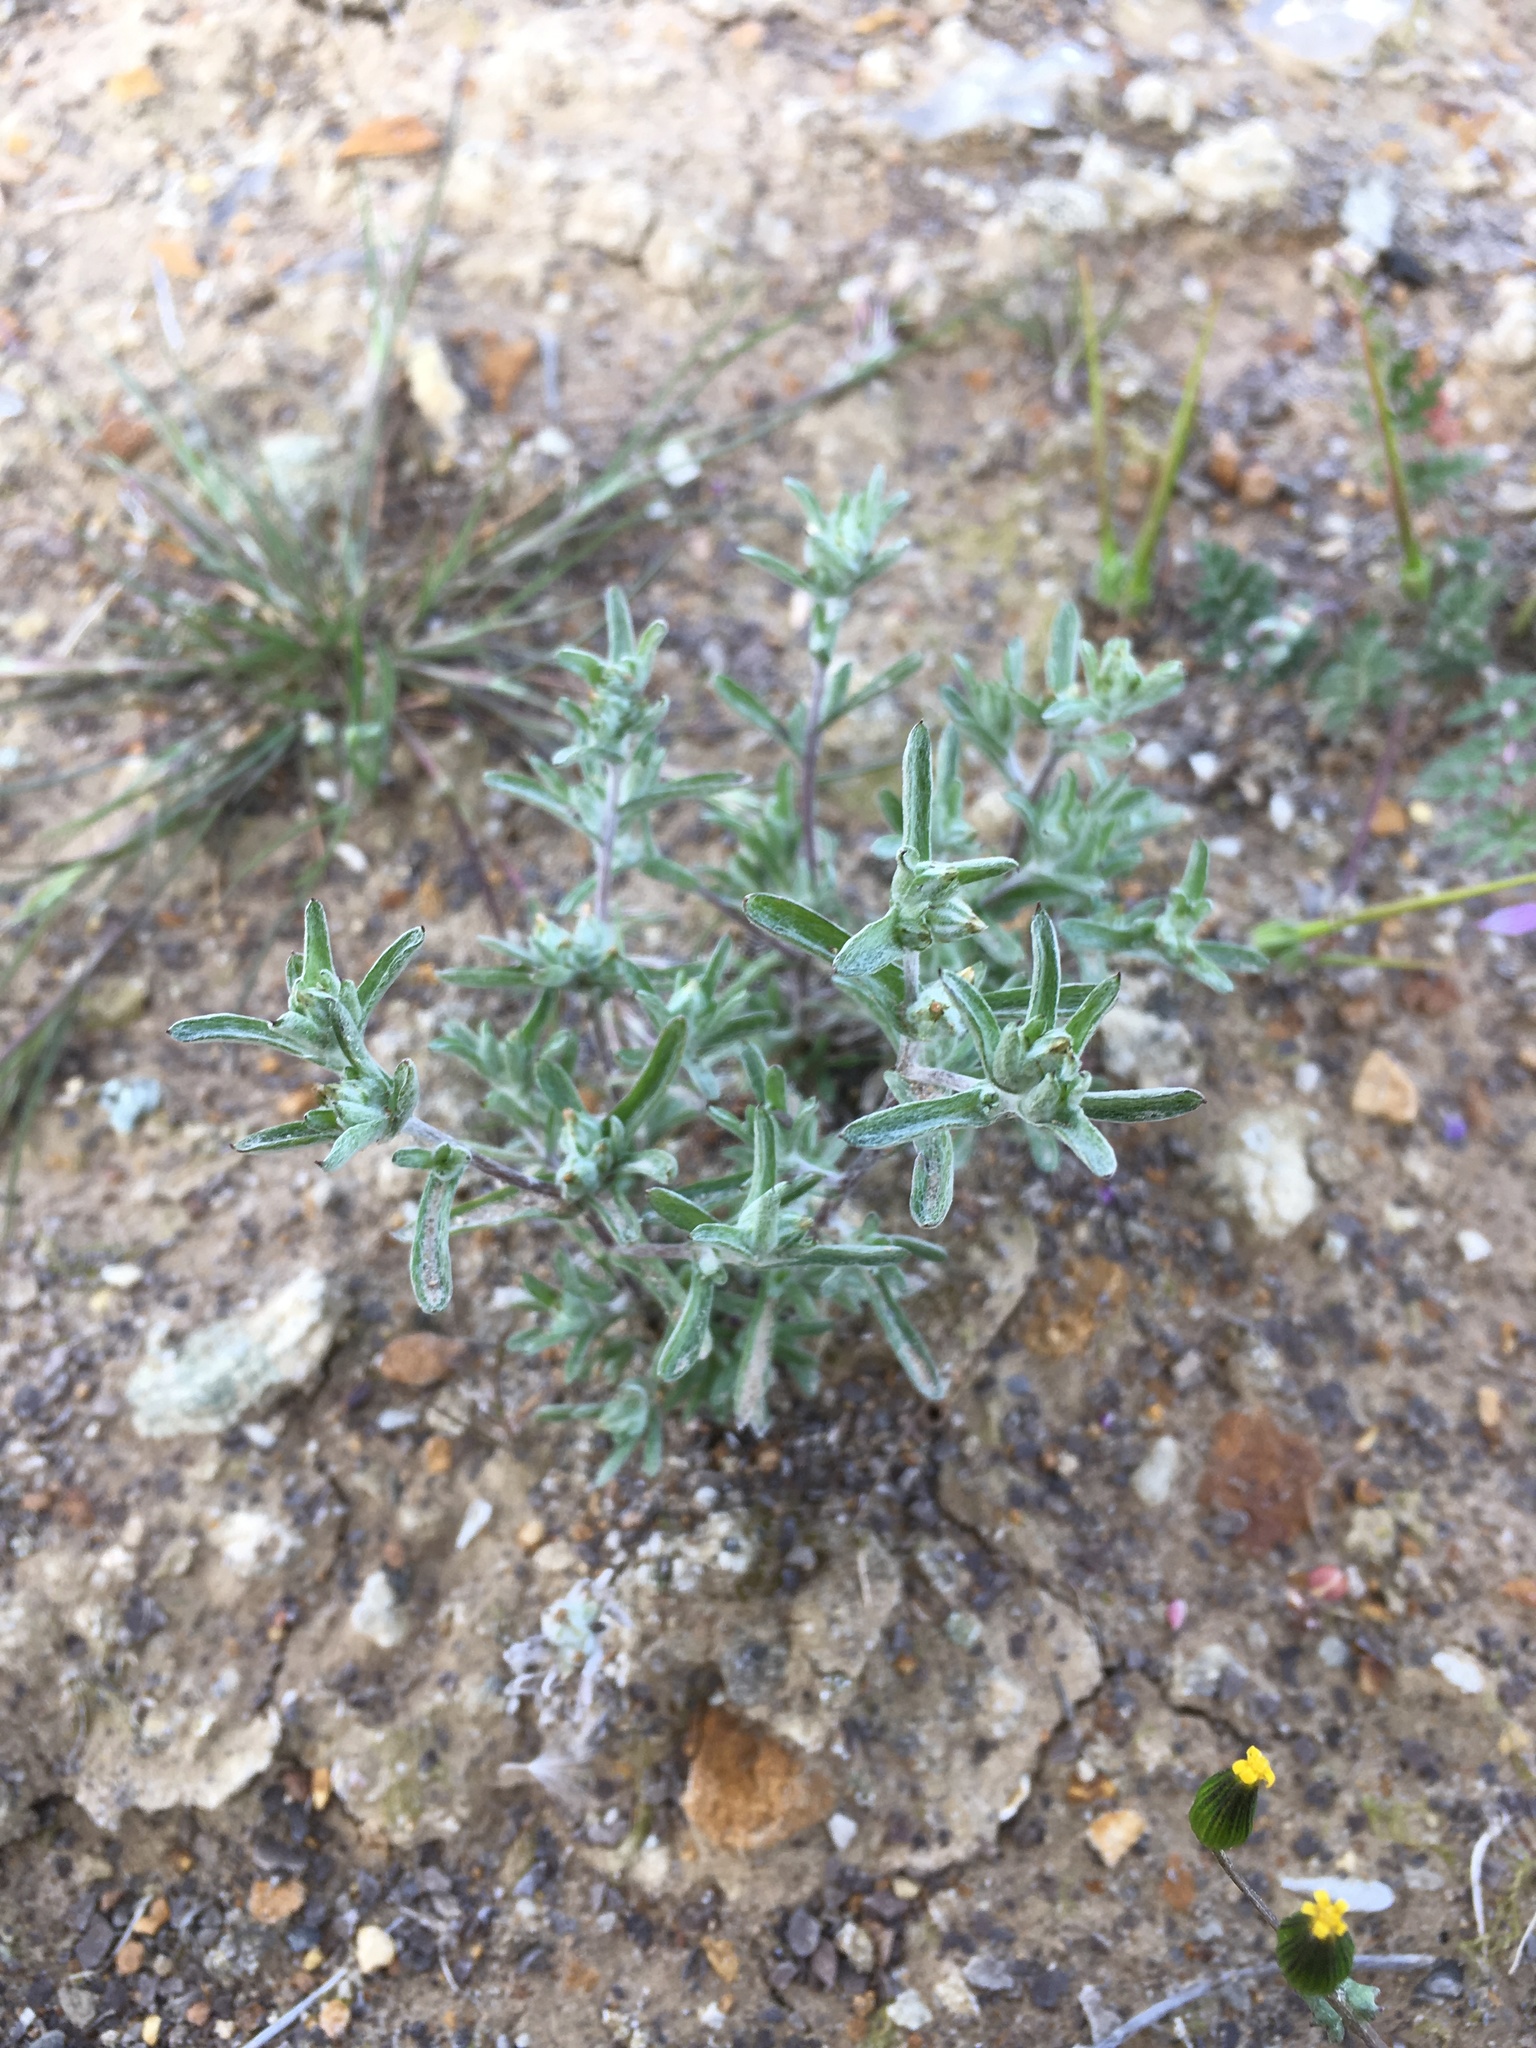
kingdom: Plantae
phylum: Tracheophyta
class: Magnoliopsida
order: Asterales
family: Asteraceae
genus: Logfia
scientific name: Logfia californica
